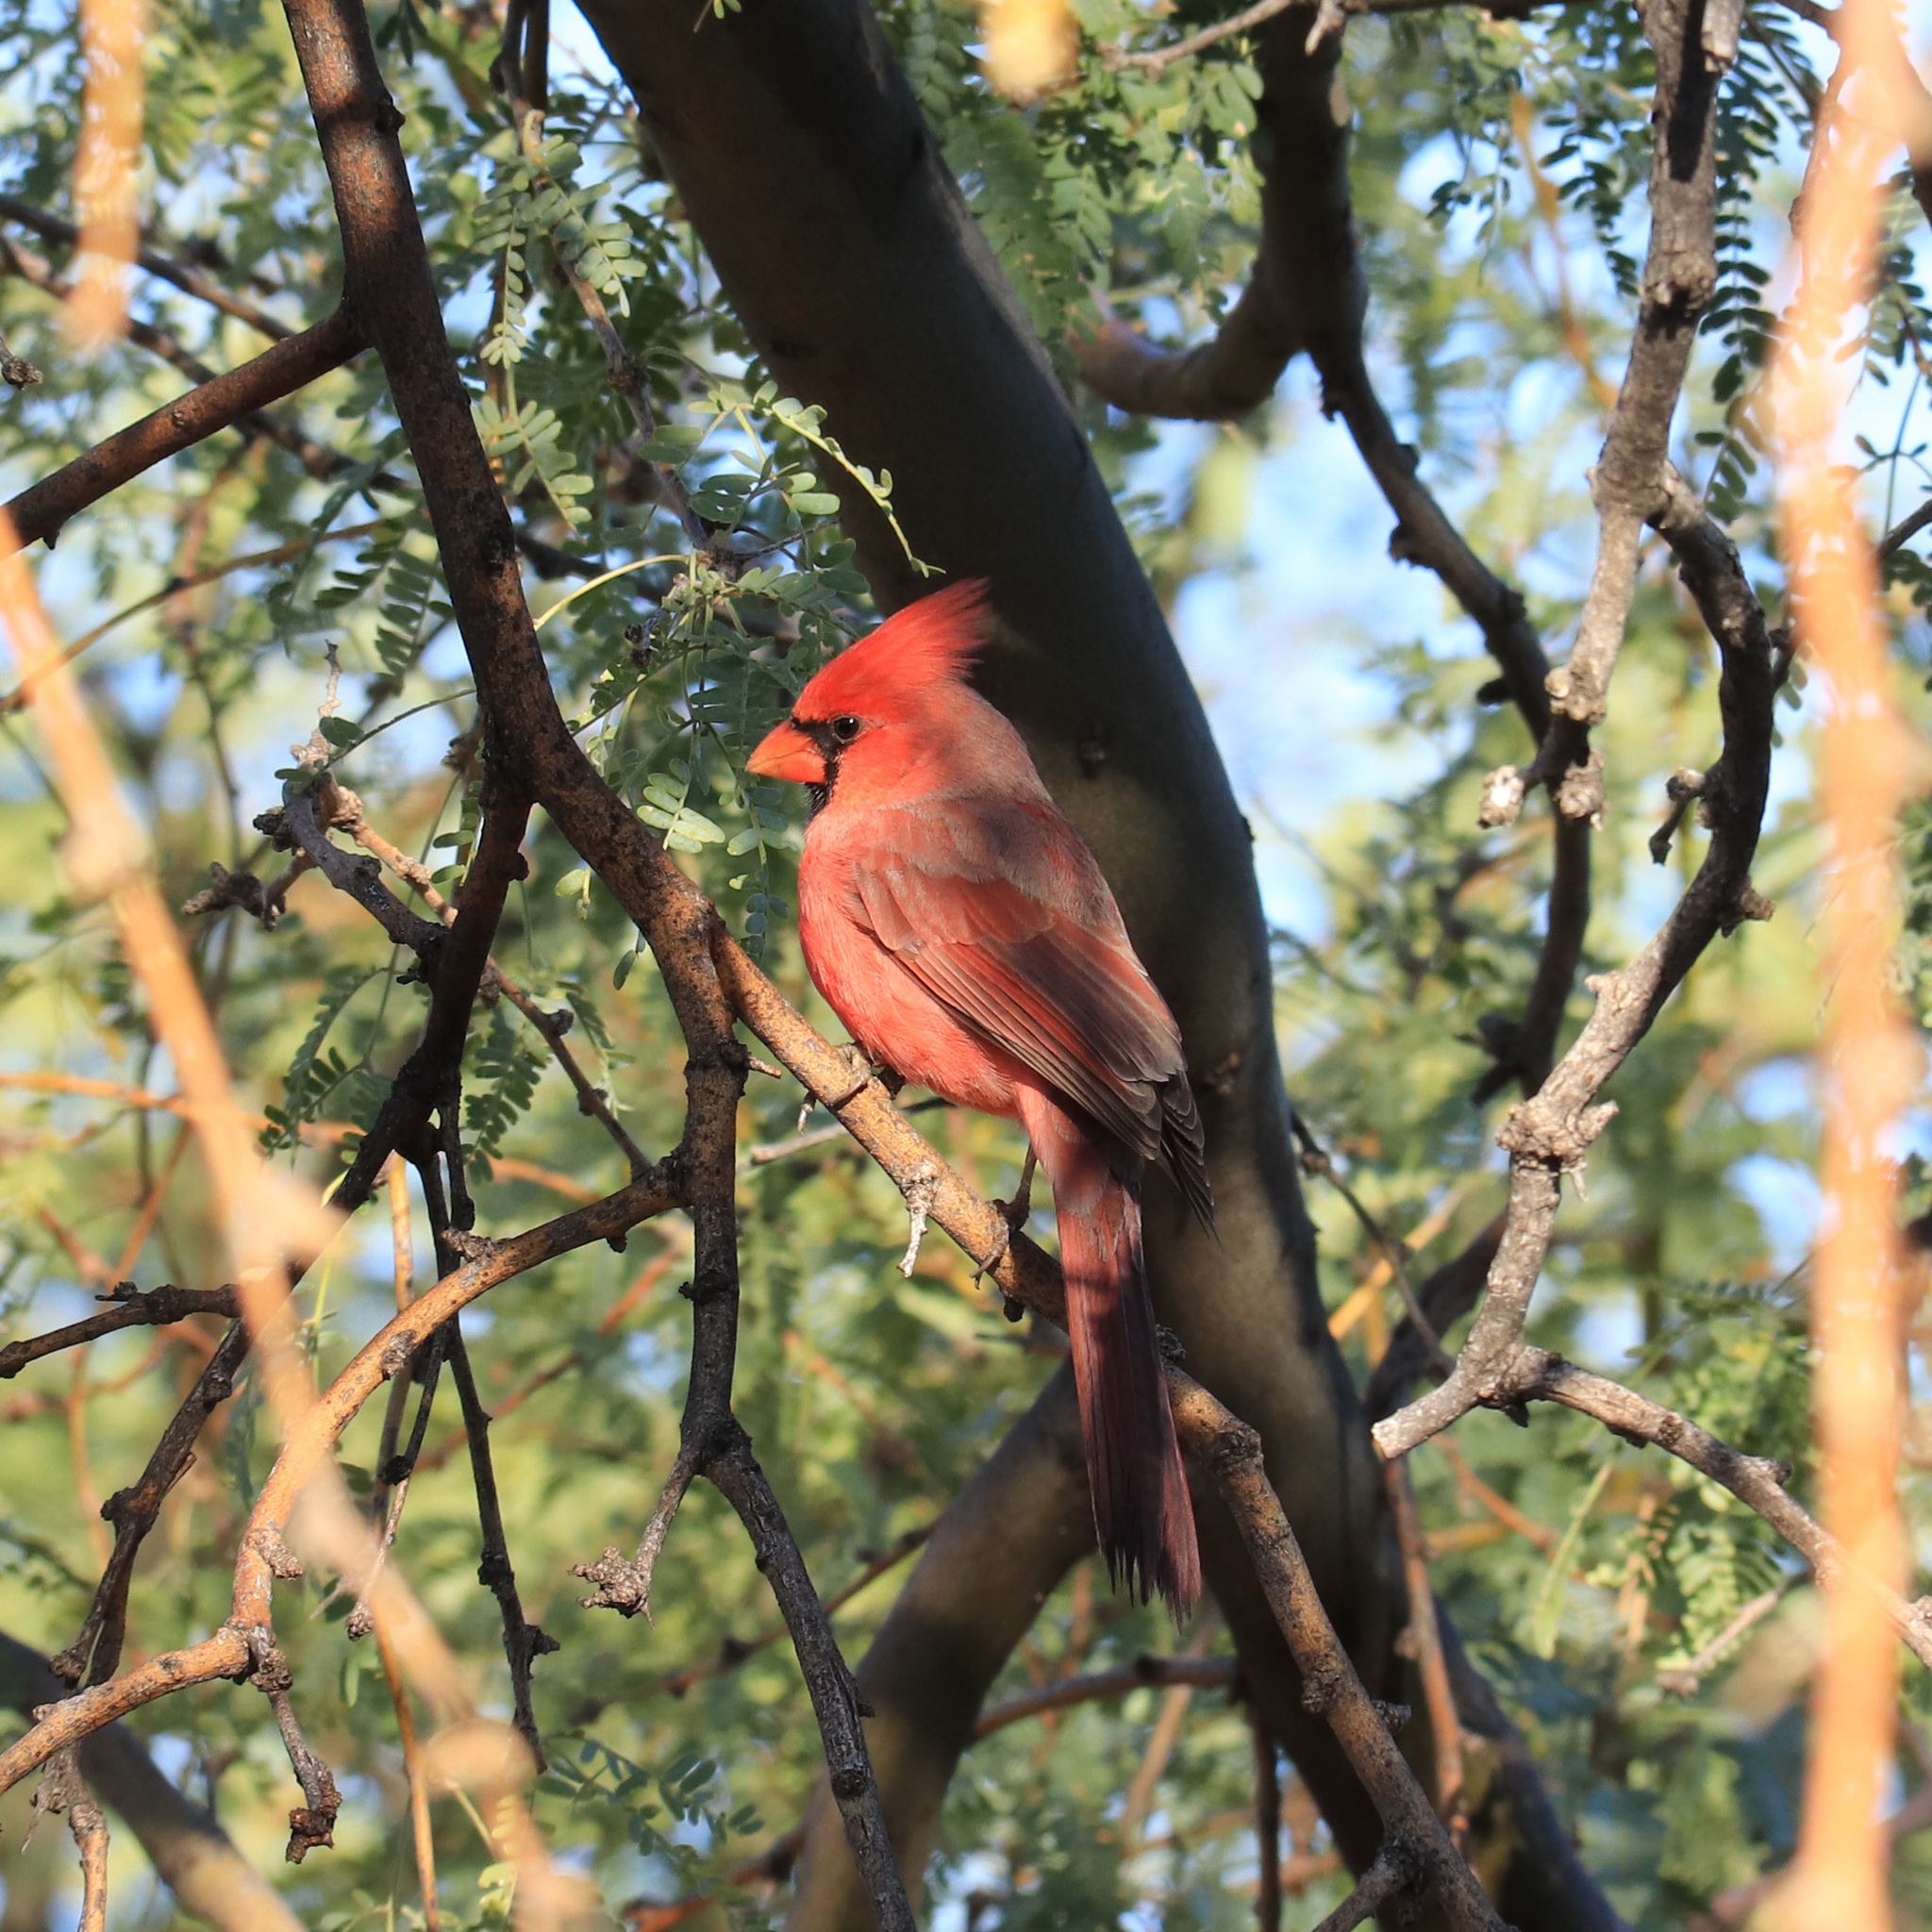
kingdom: Animalia
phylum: Chordata
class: Aves
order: Passeriformes
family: Cardinalidae
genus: Cardinalis
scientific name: Cardinalis cardinalis
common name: Northern cardinal
